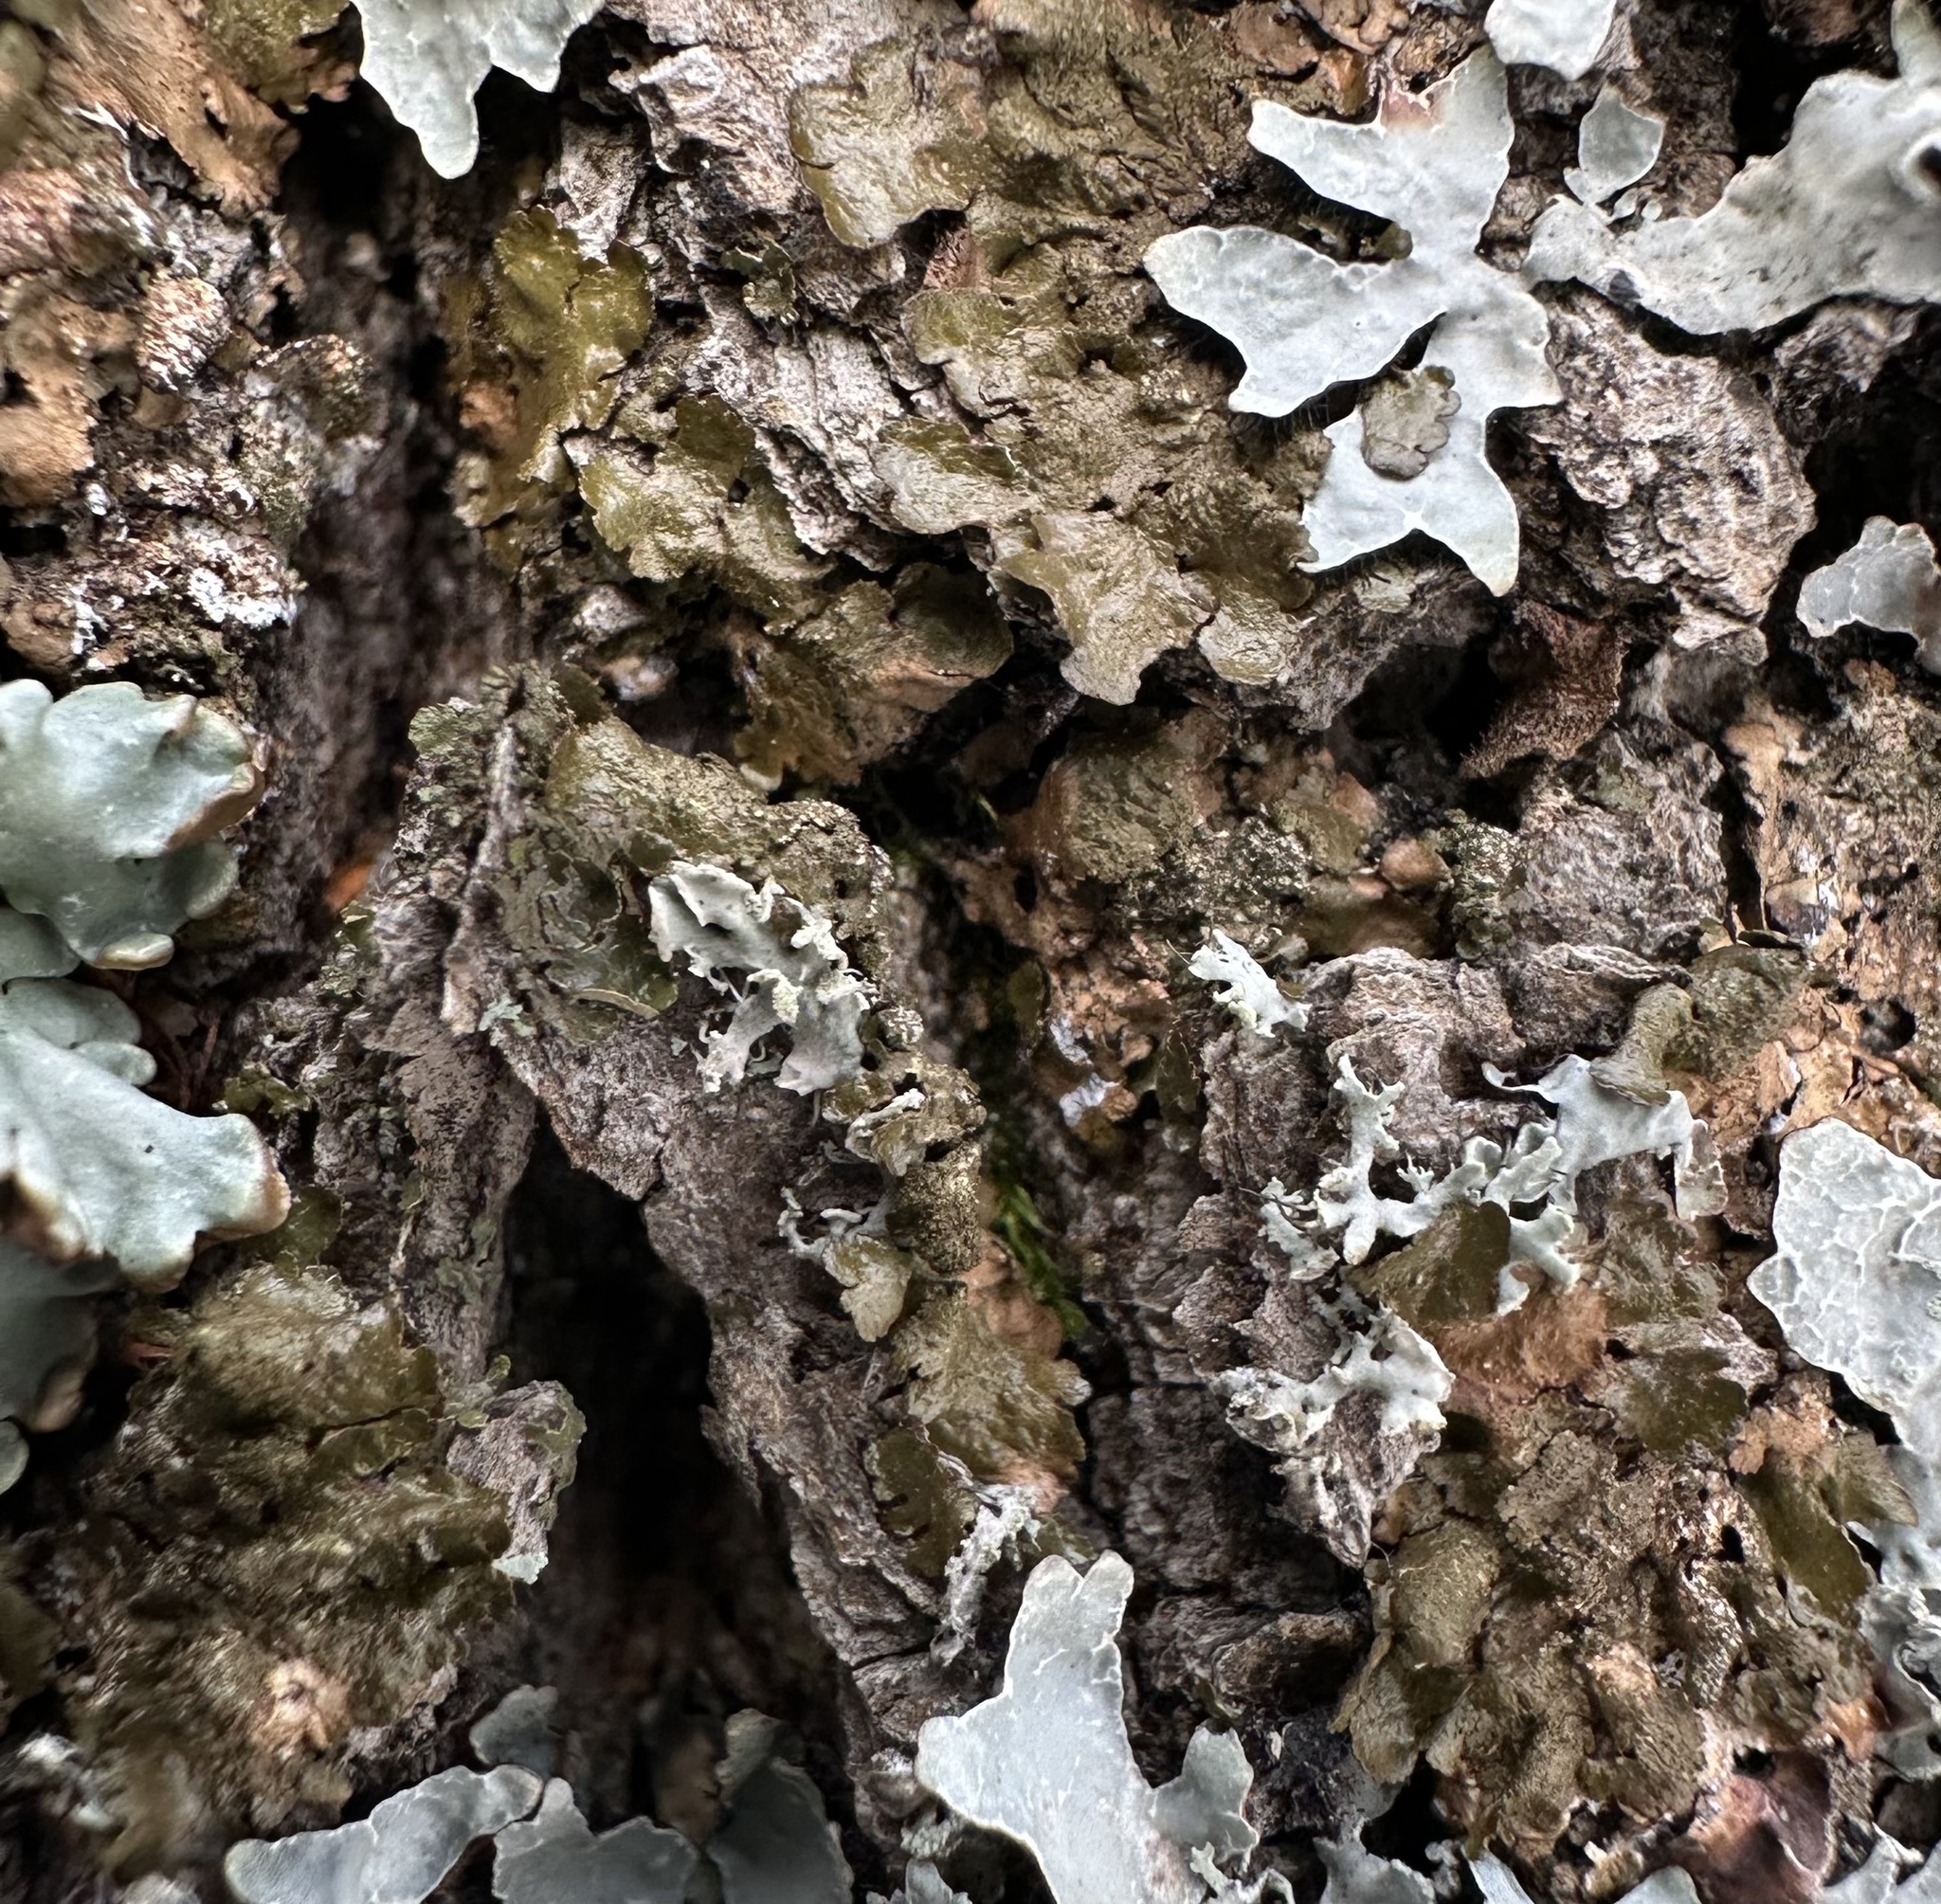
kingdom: Fungi
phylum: Ascomycota
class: Lecanoromycetes
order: Lecanorales
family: Parmeliaceae
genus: Melanelixia
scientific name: Melanelixia subaurifera
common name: Abraded camouflage lichen
